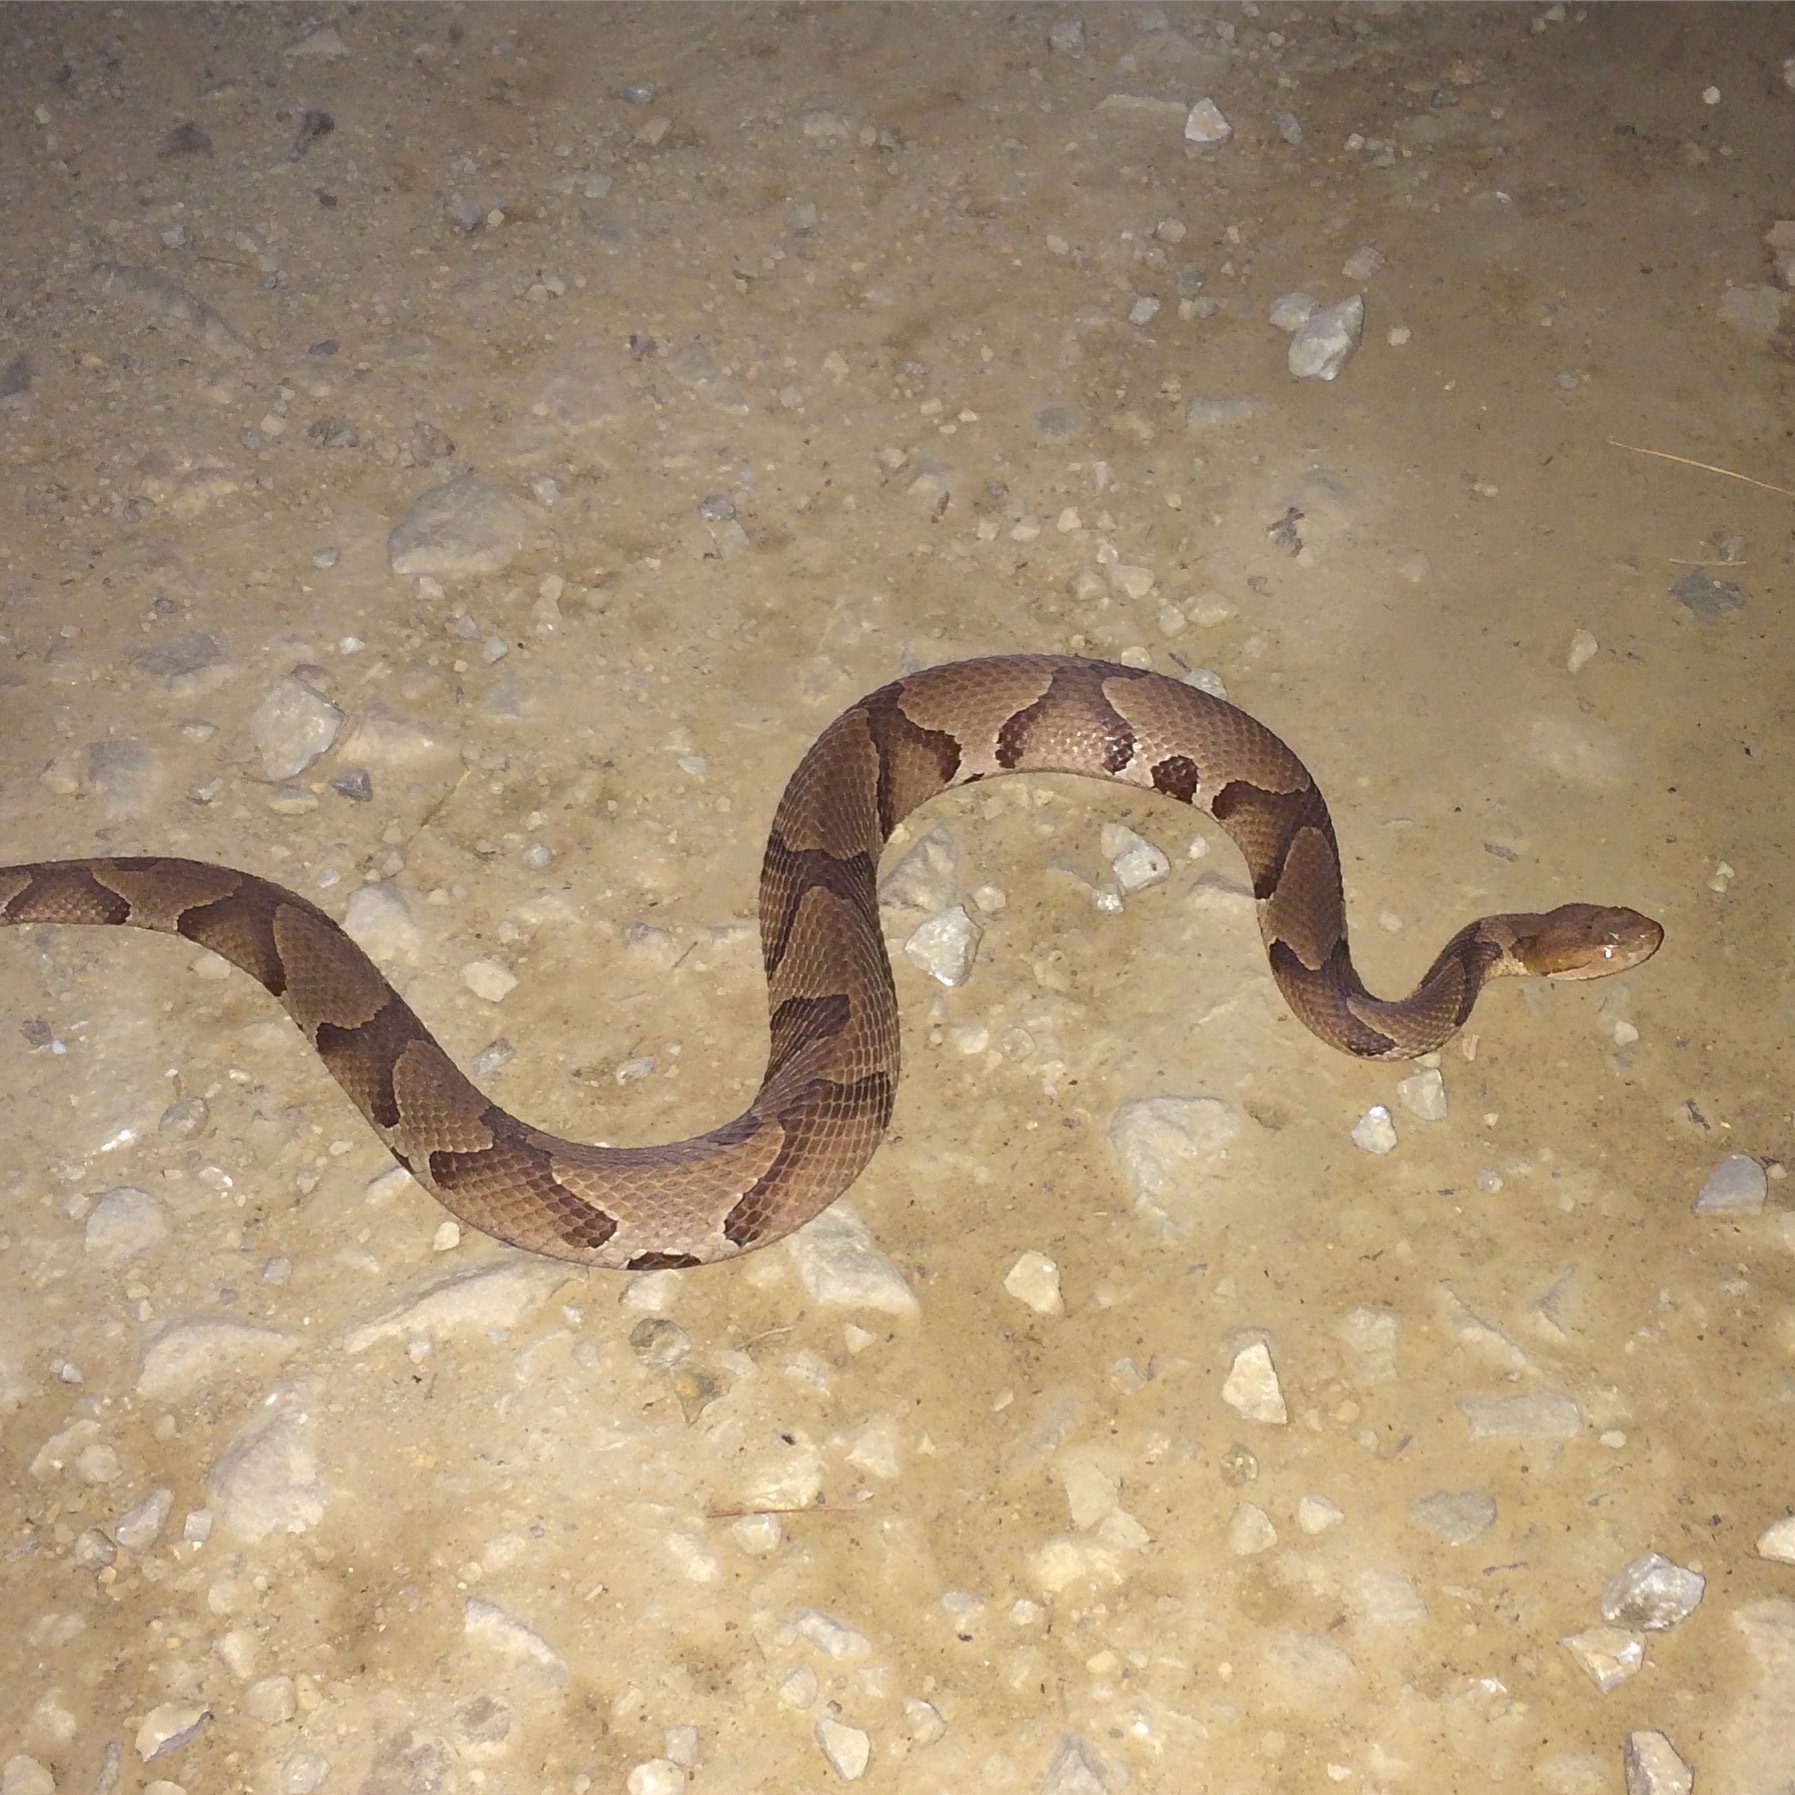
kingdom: Animalia
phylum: Chordata
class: Squamata
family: Viperidae
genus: Agkistrodon
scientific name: Agkistrodon contortrix
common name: Northern copperhead
